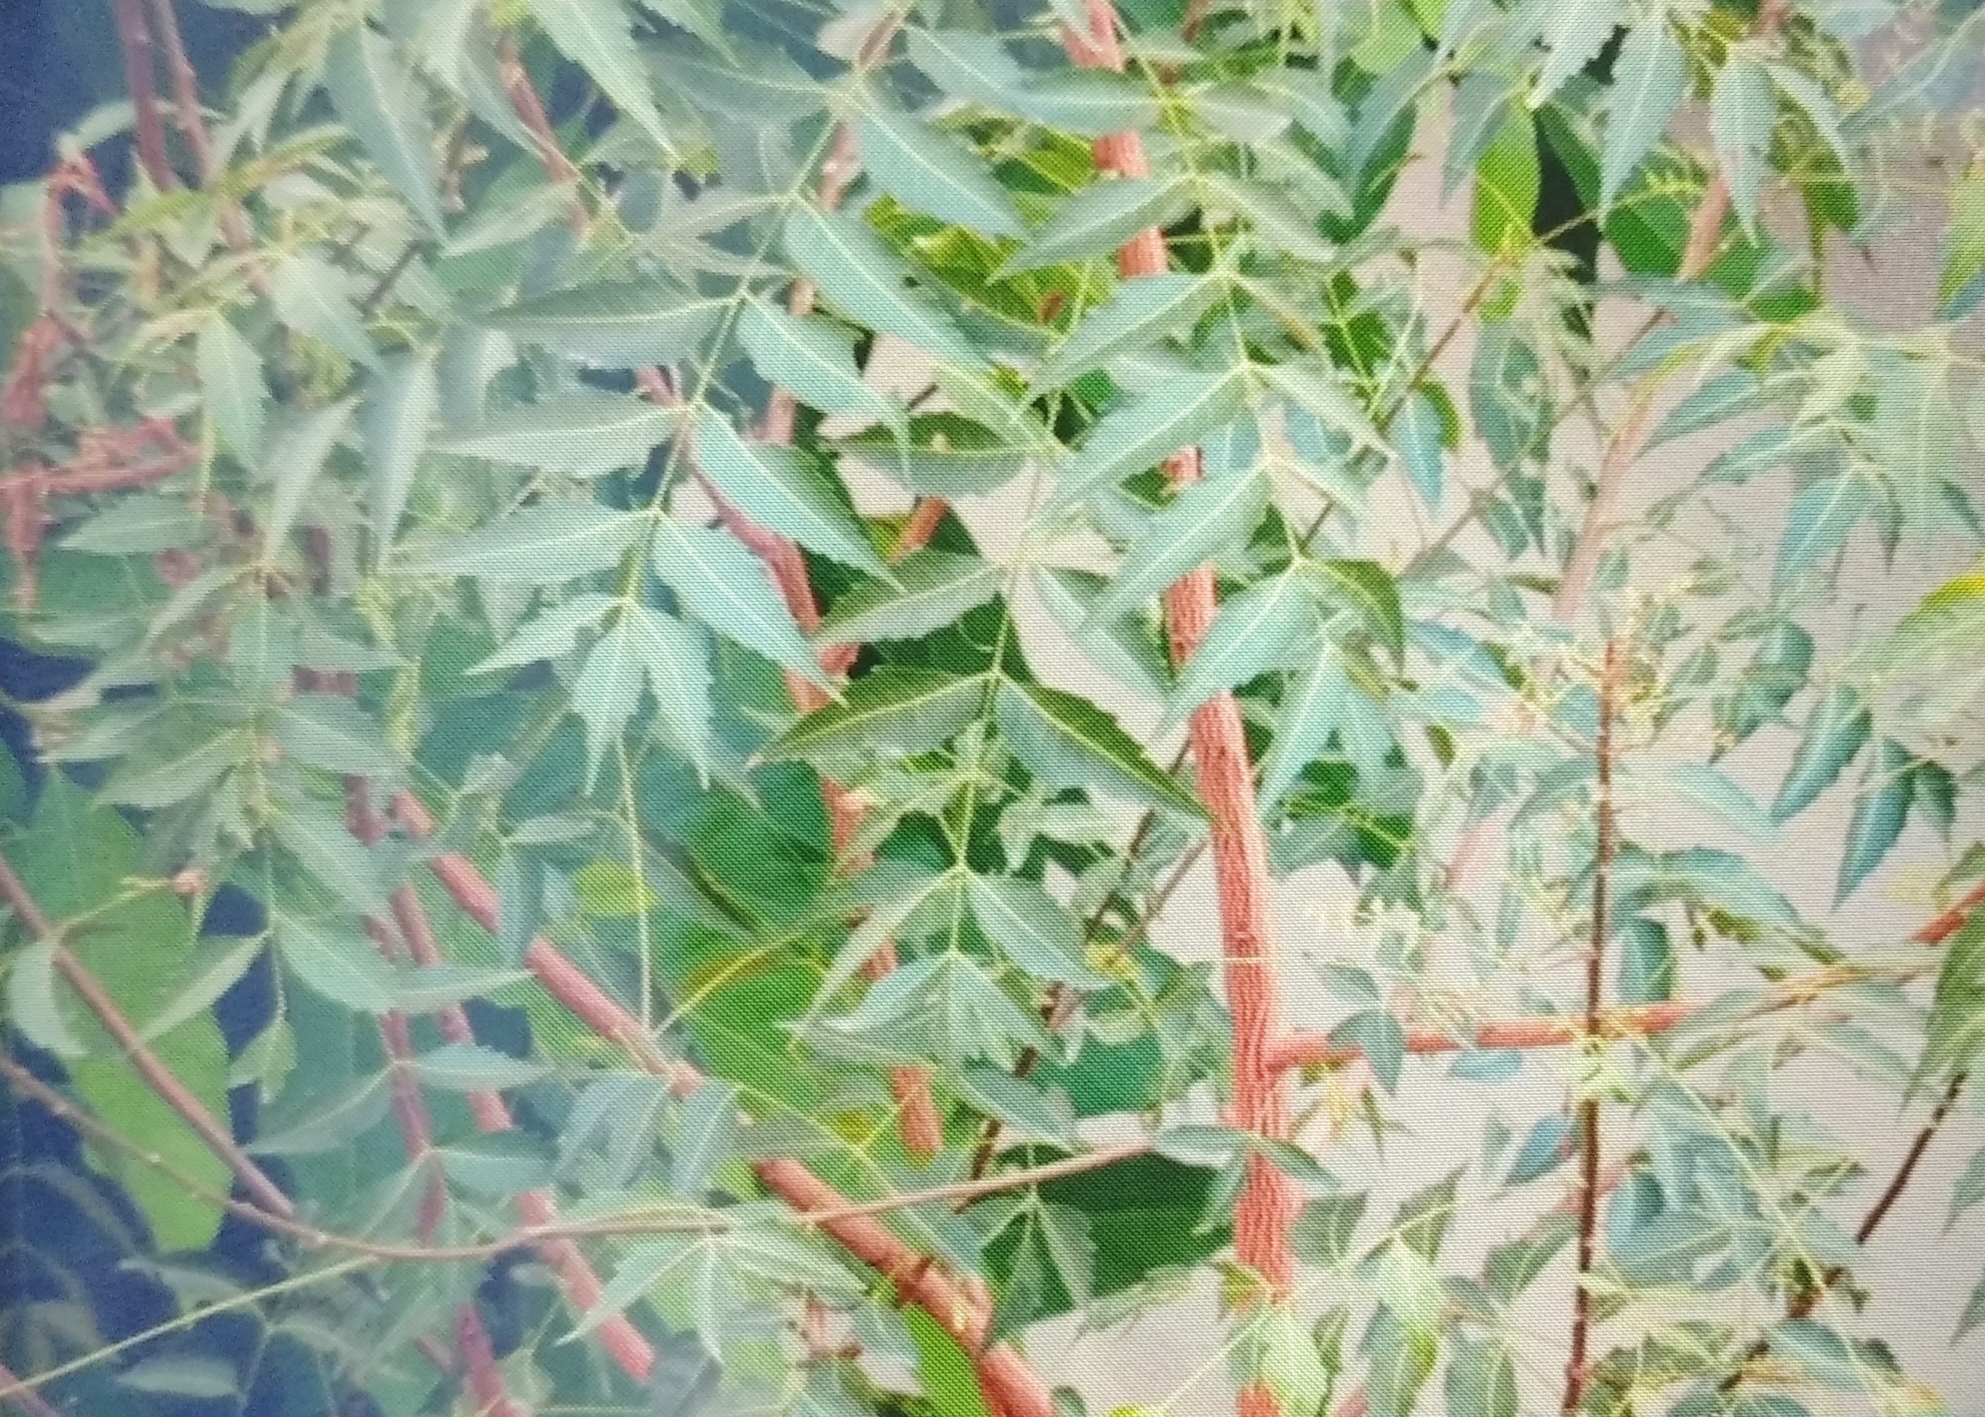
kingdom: Plantae
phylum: Tracheophyta
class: Magnoliopsida
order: Sapindales
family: Meliaceae
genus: Azadirachta
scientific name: Azadirachta indica
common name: Neem
